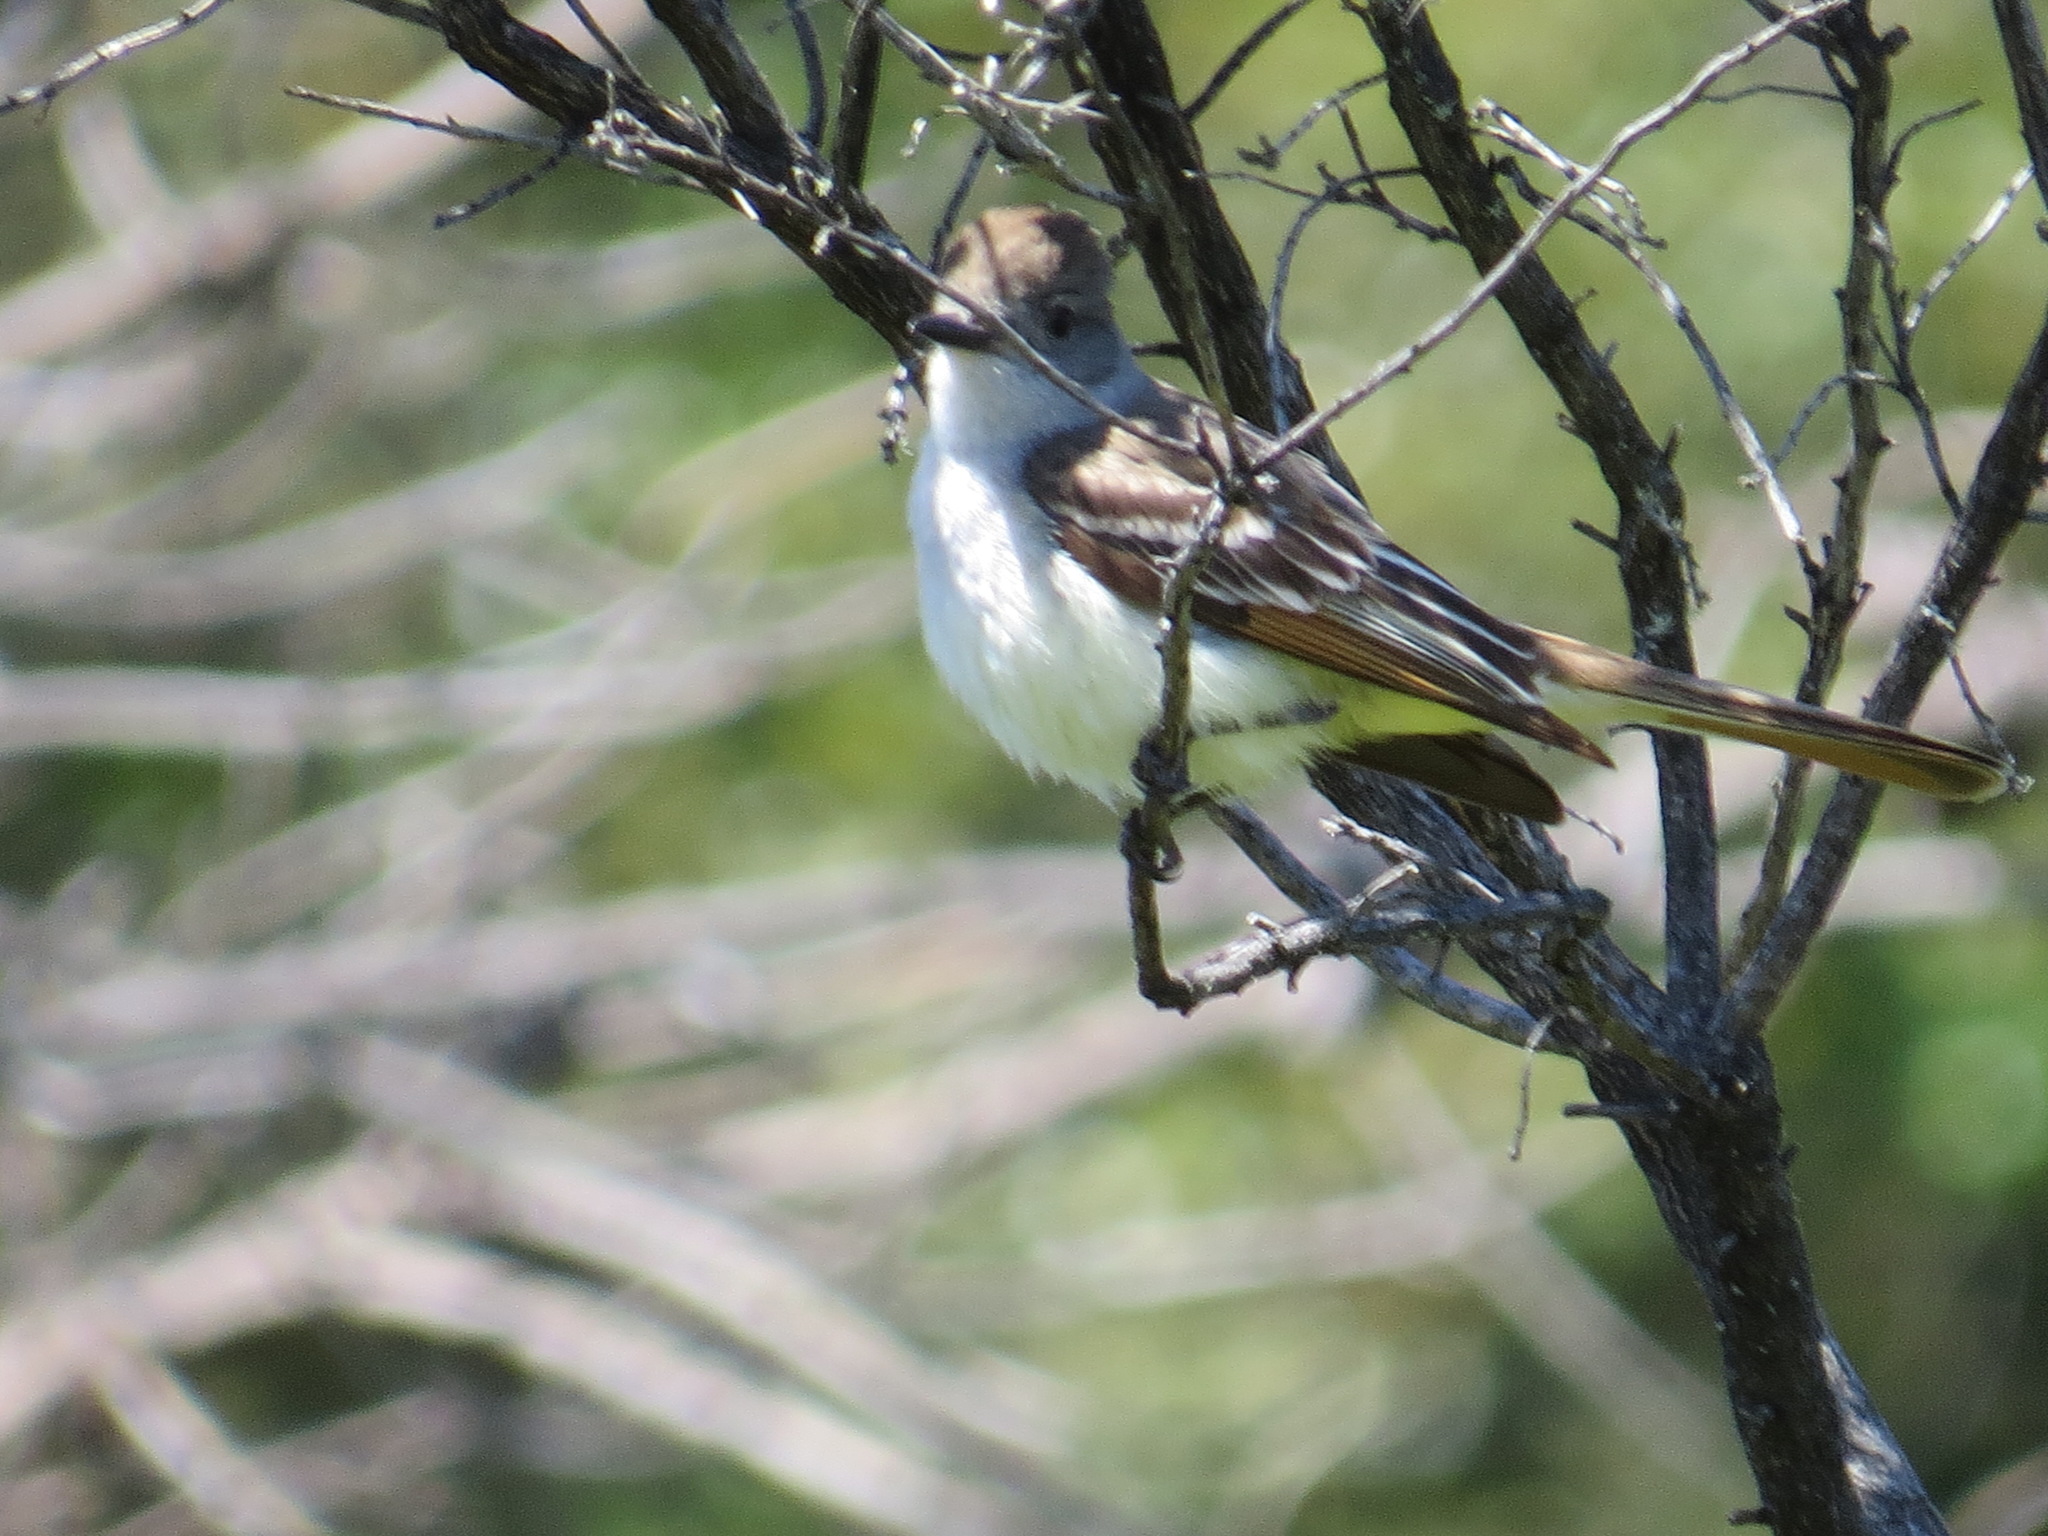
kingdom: Animalia
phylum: Chordata
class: Aves
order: Passeriformes
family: Tyrannidae
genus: Myiarchus
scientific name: Myiarchus cinerascens
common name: Ash-throated flycatcher
